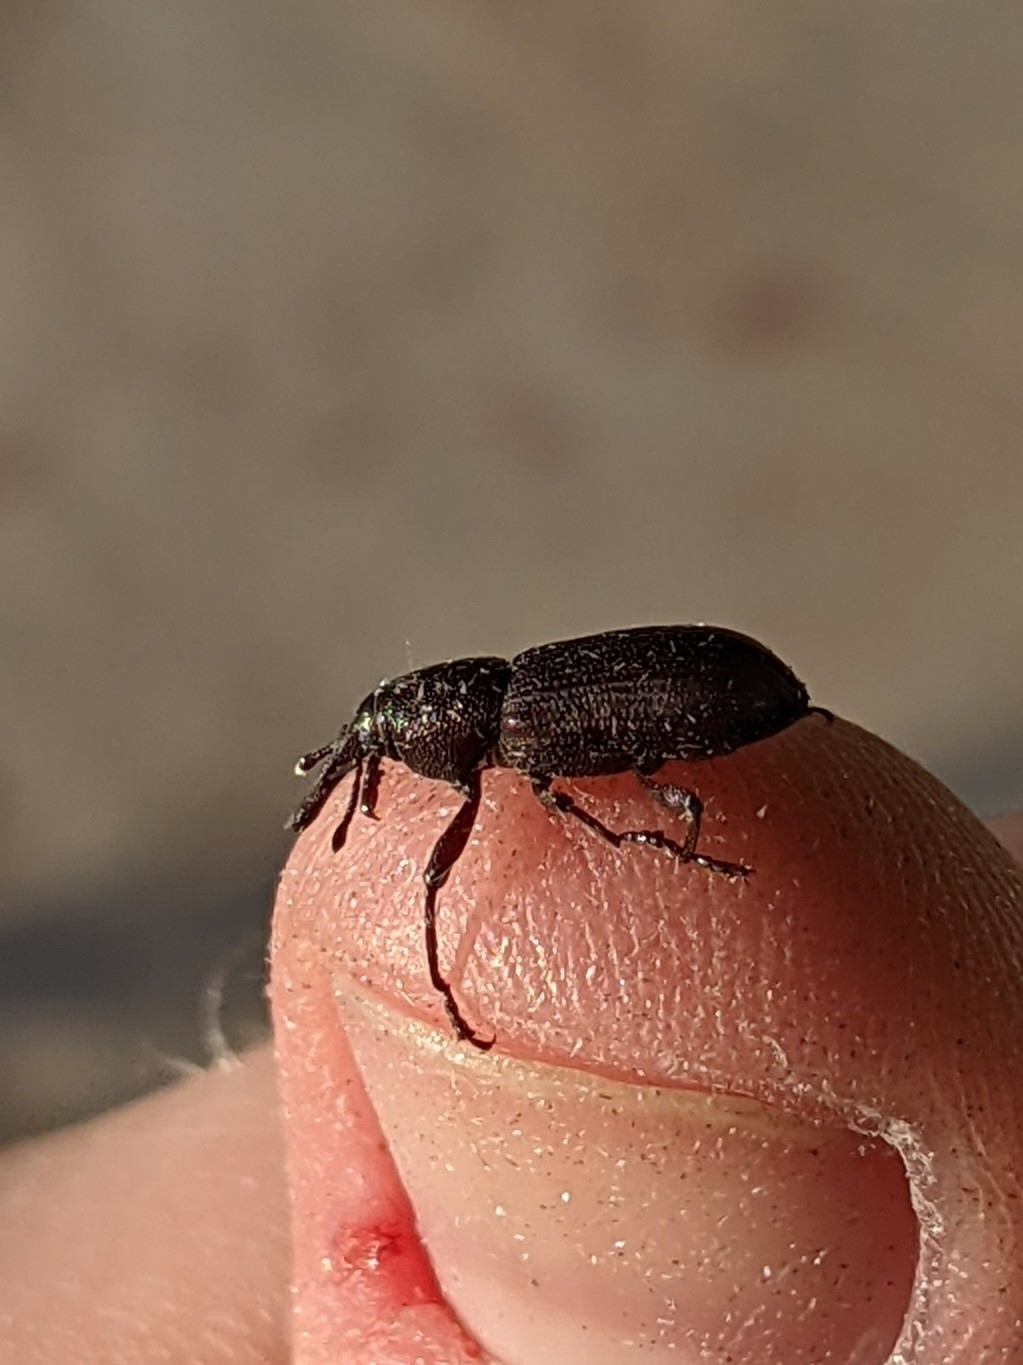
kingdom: Animalia
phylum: Arthropoda
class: Insecta
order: Coleoptera
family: Dryophthoridae
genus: Rhinostomus
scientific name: Rhinostomus
